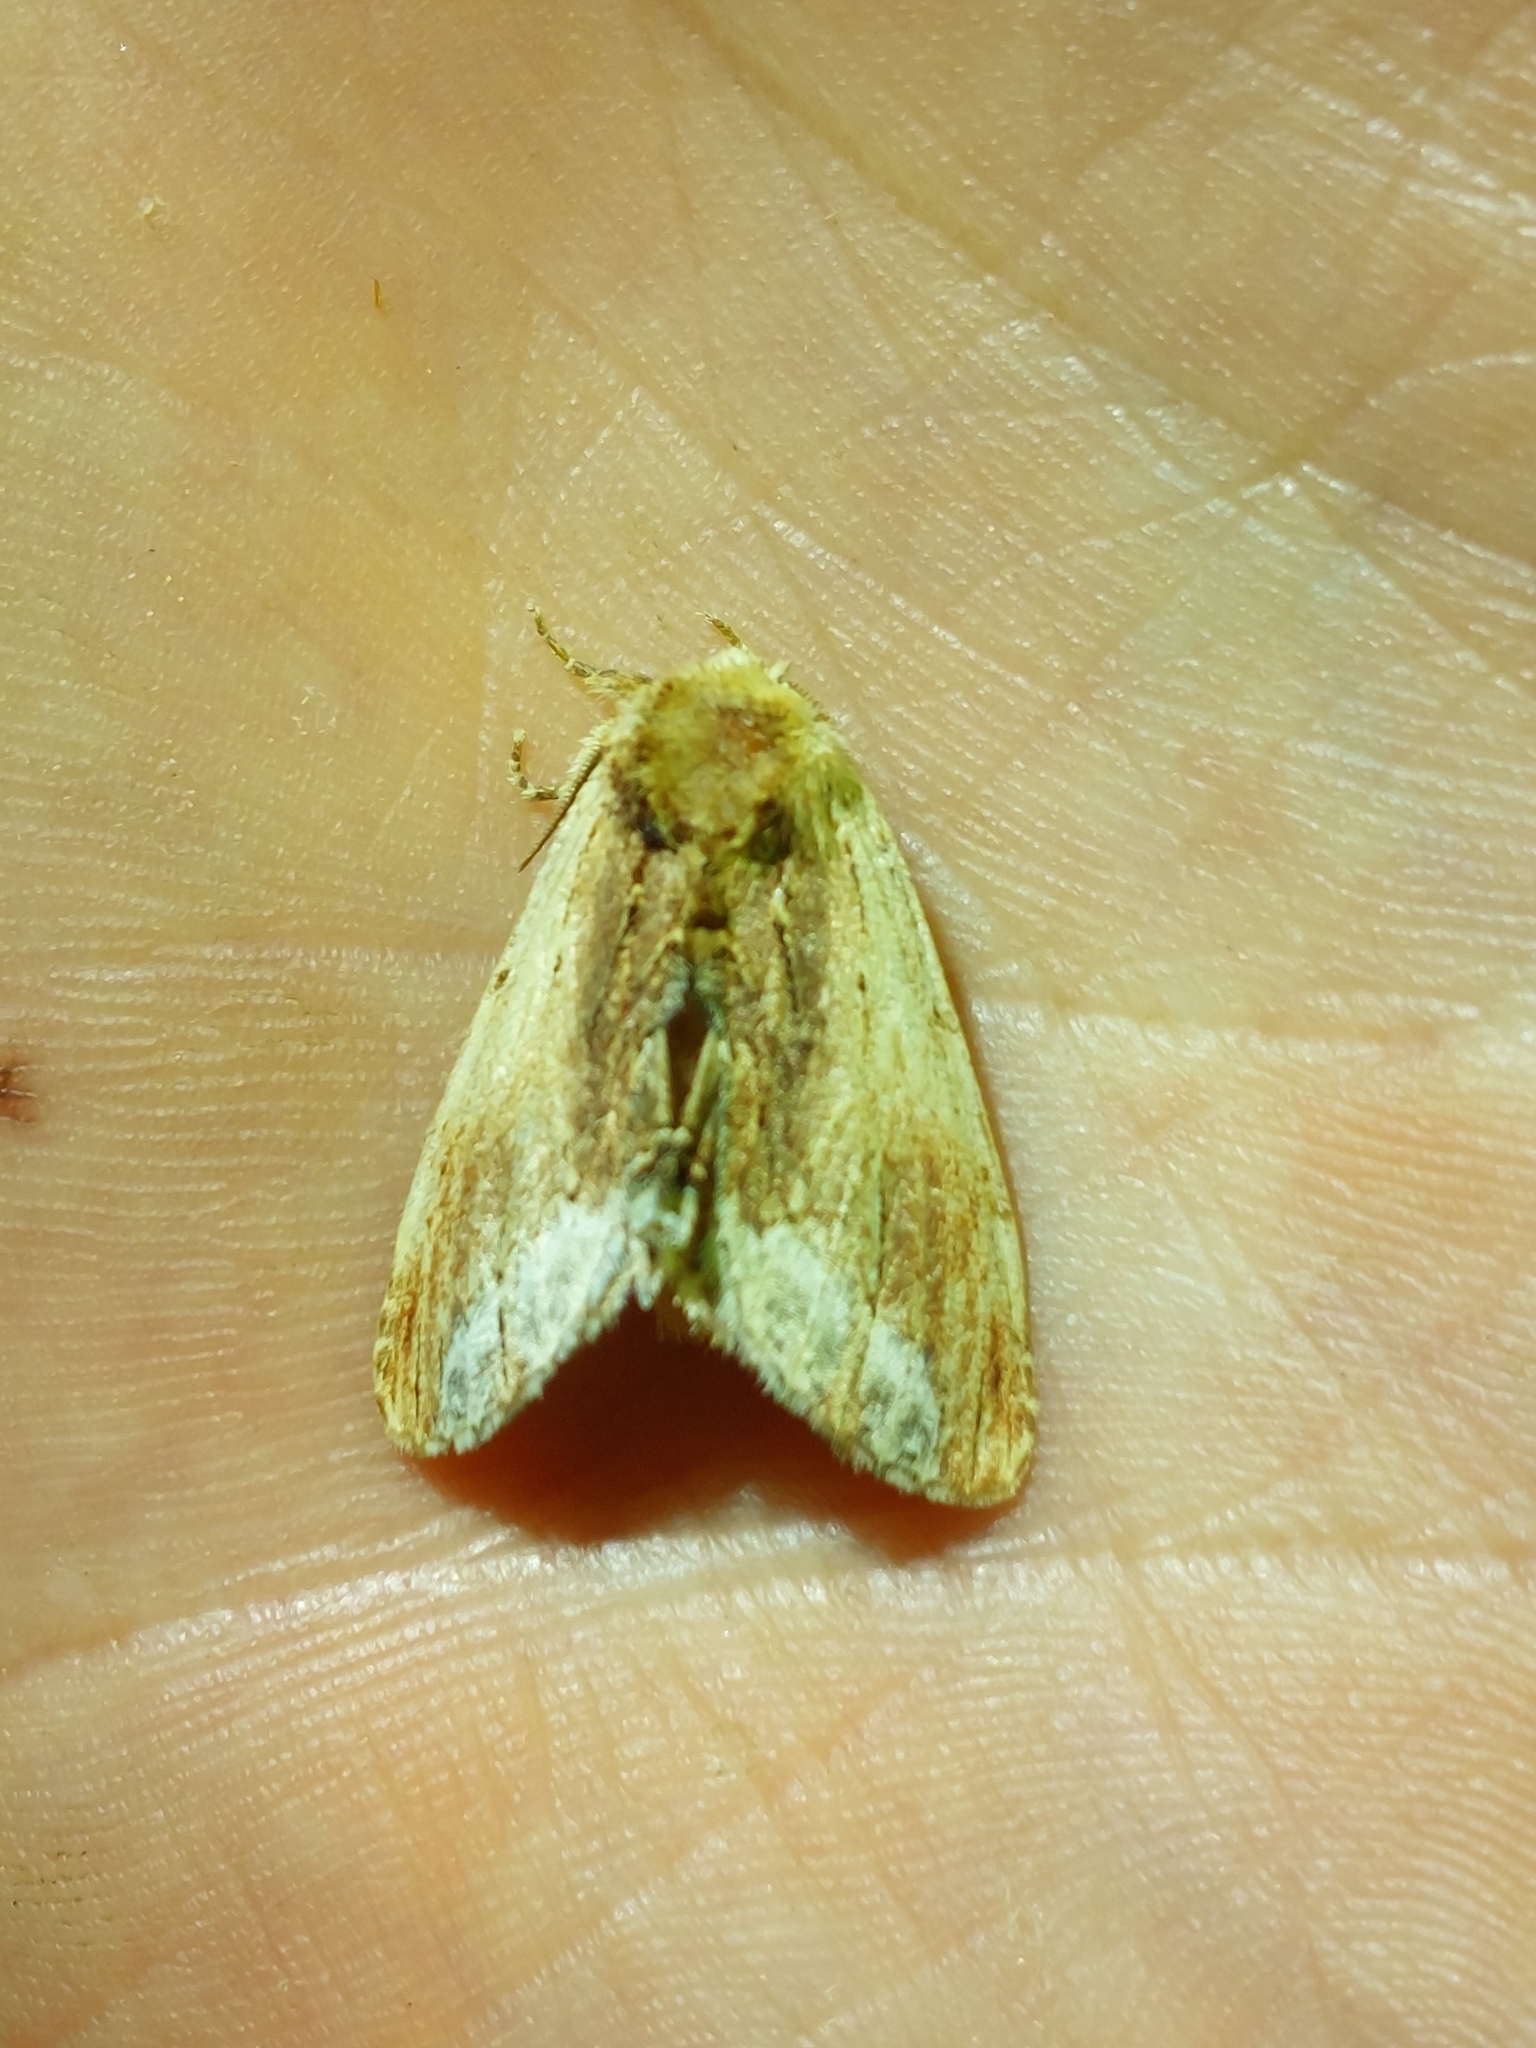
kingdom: Animalia
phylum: Arthropoda
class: Insecta
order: Lepidoptera
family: Notodontidae
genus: Ptilodon
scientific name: Ptilodon cucullina
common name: Maple prominent
